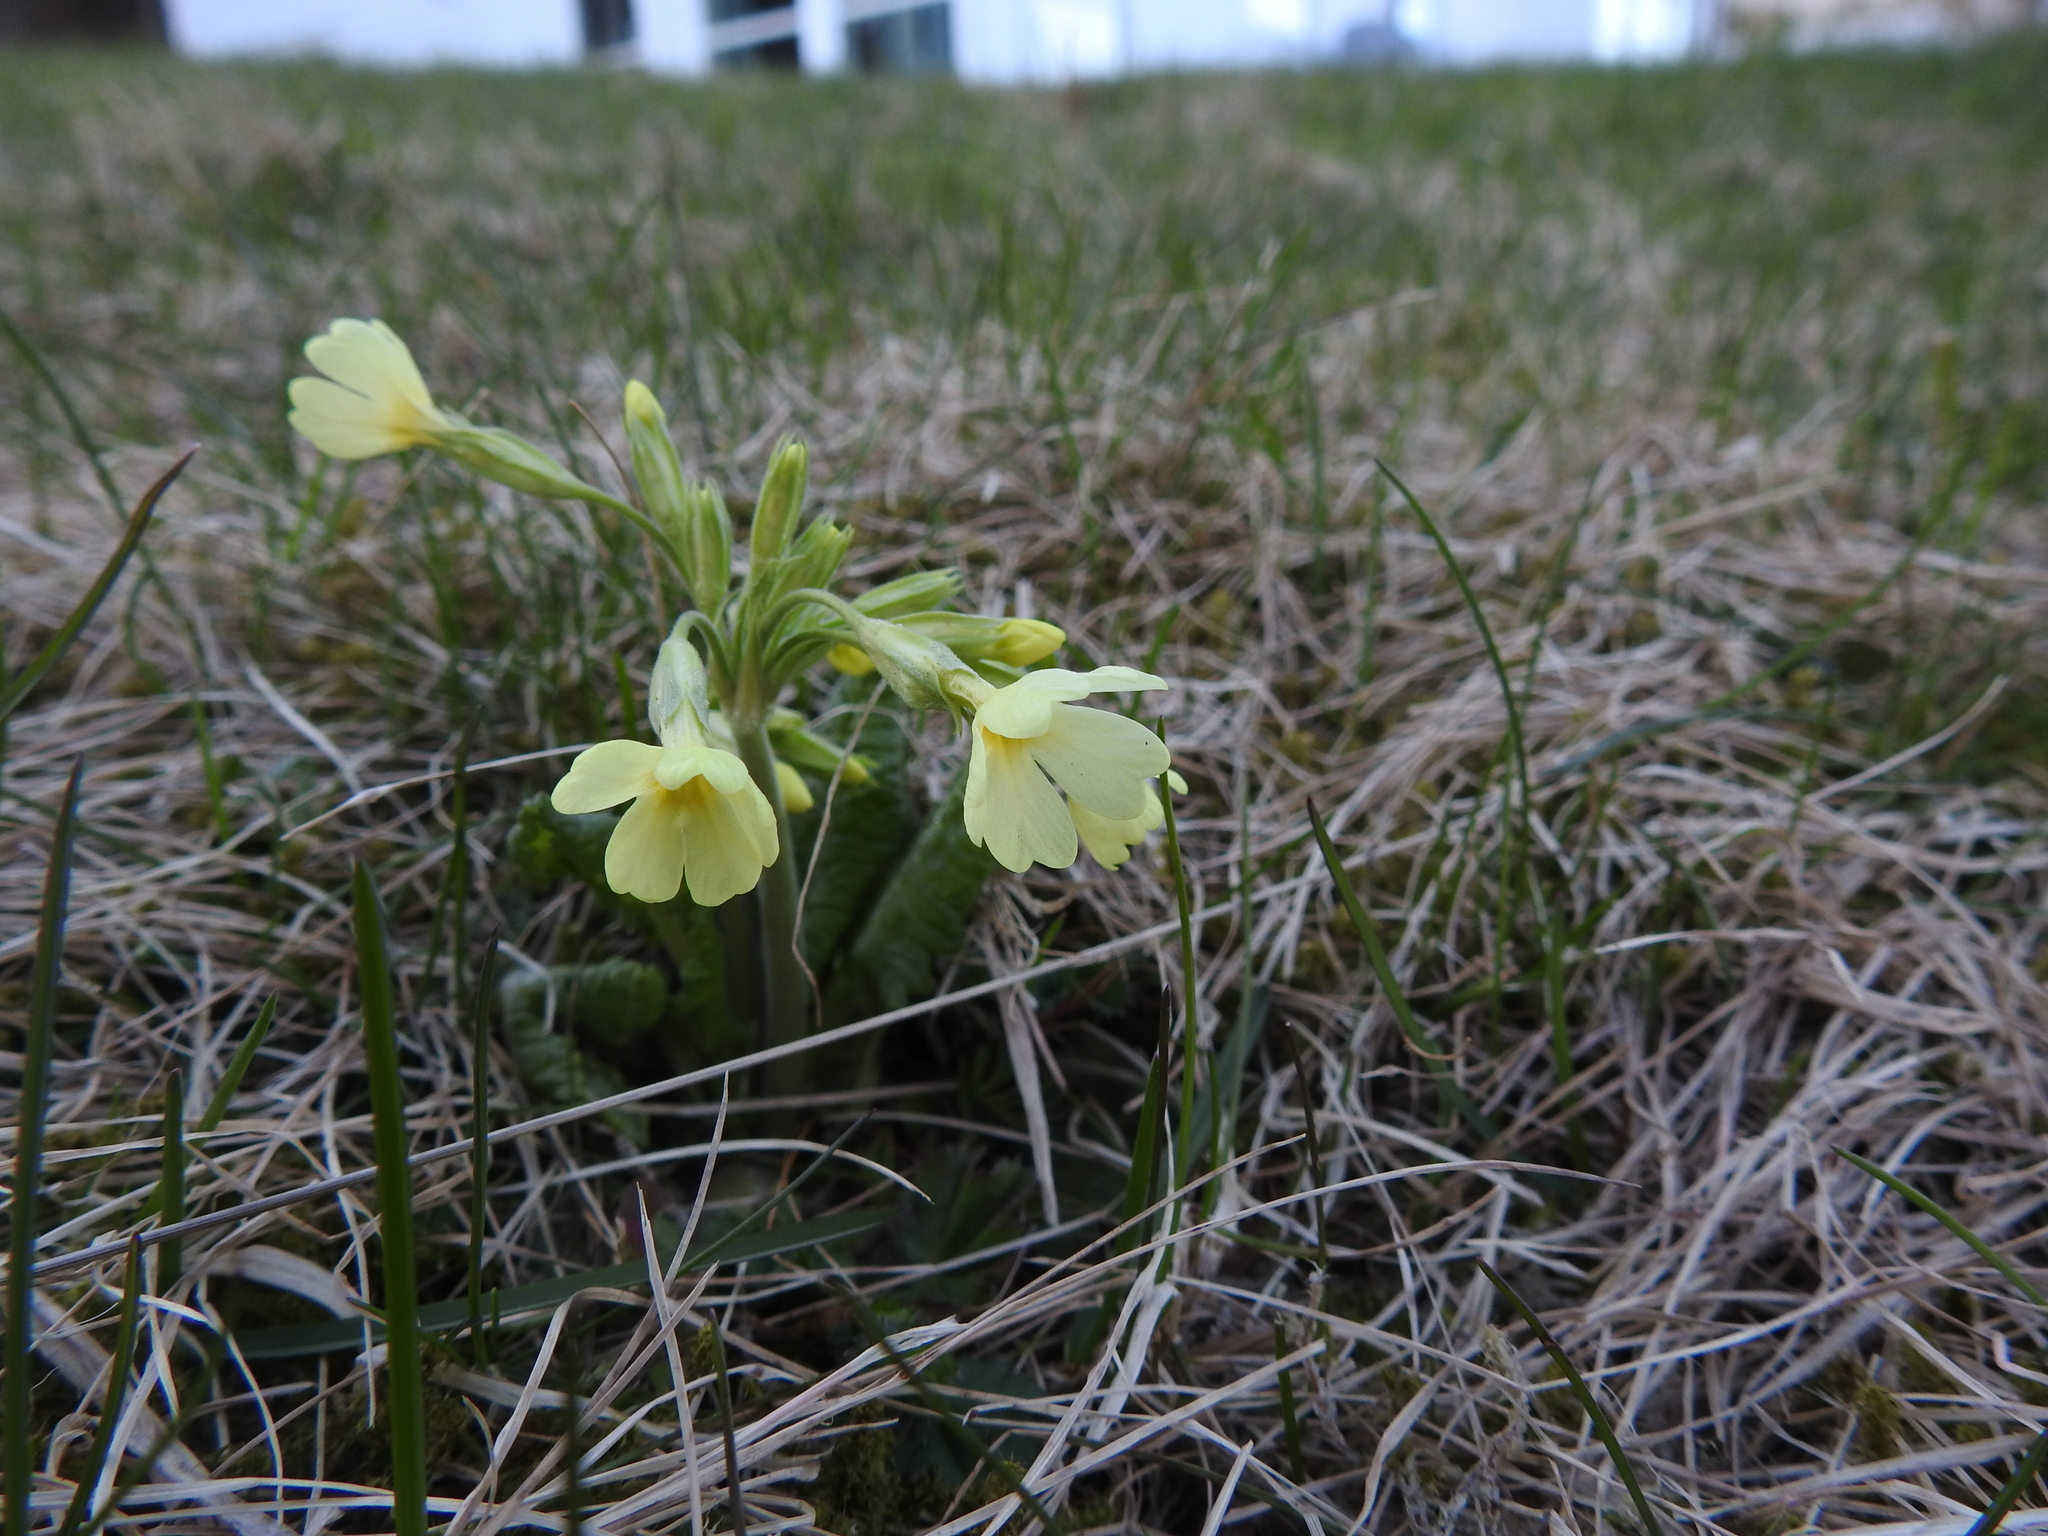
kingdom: Plantae
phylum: Tracheophyta
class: Magnoliopsida
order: Ericales
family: Primulaceae
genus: Primula
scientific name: Primula elatior
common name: Oxlip
